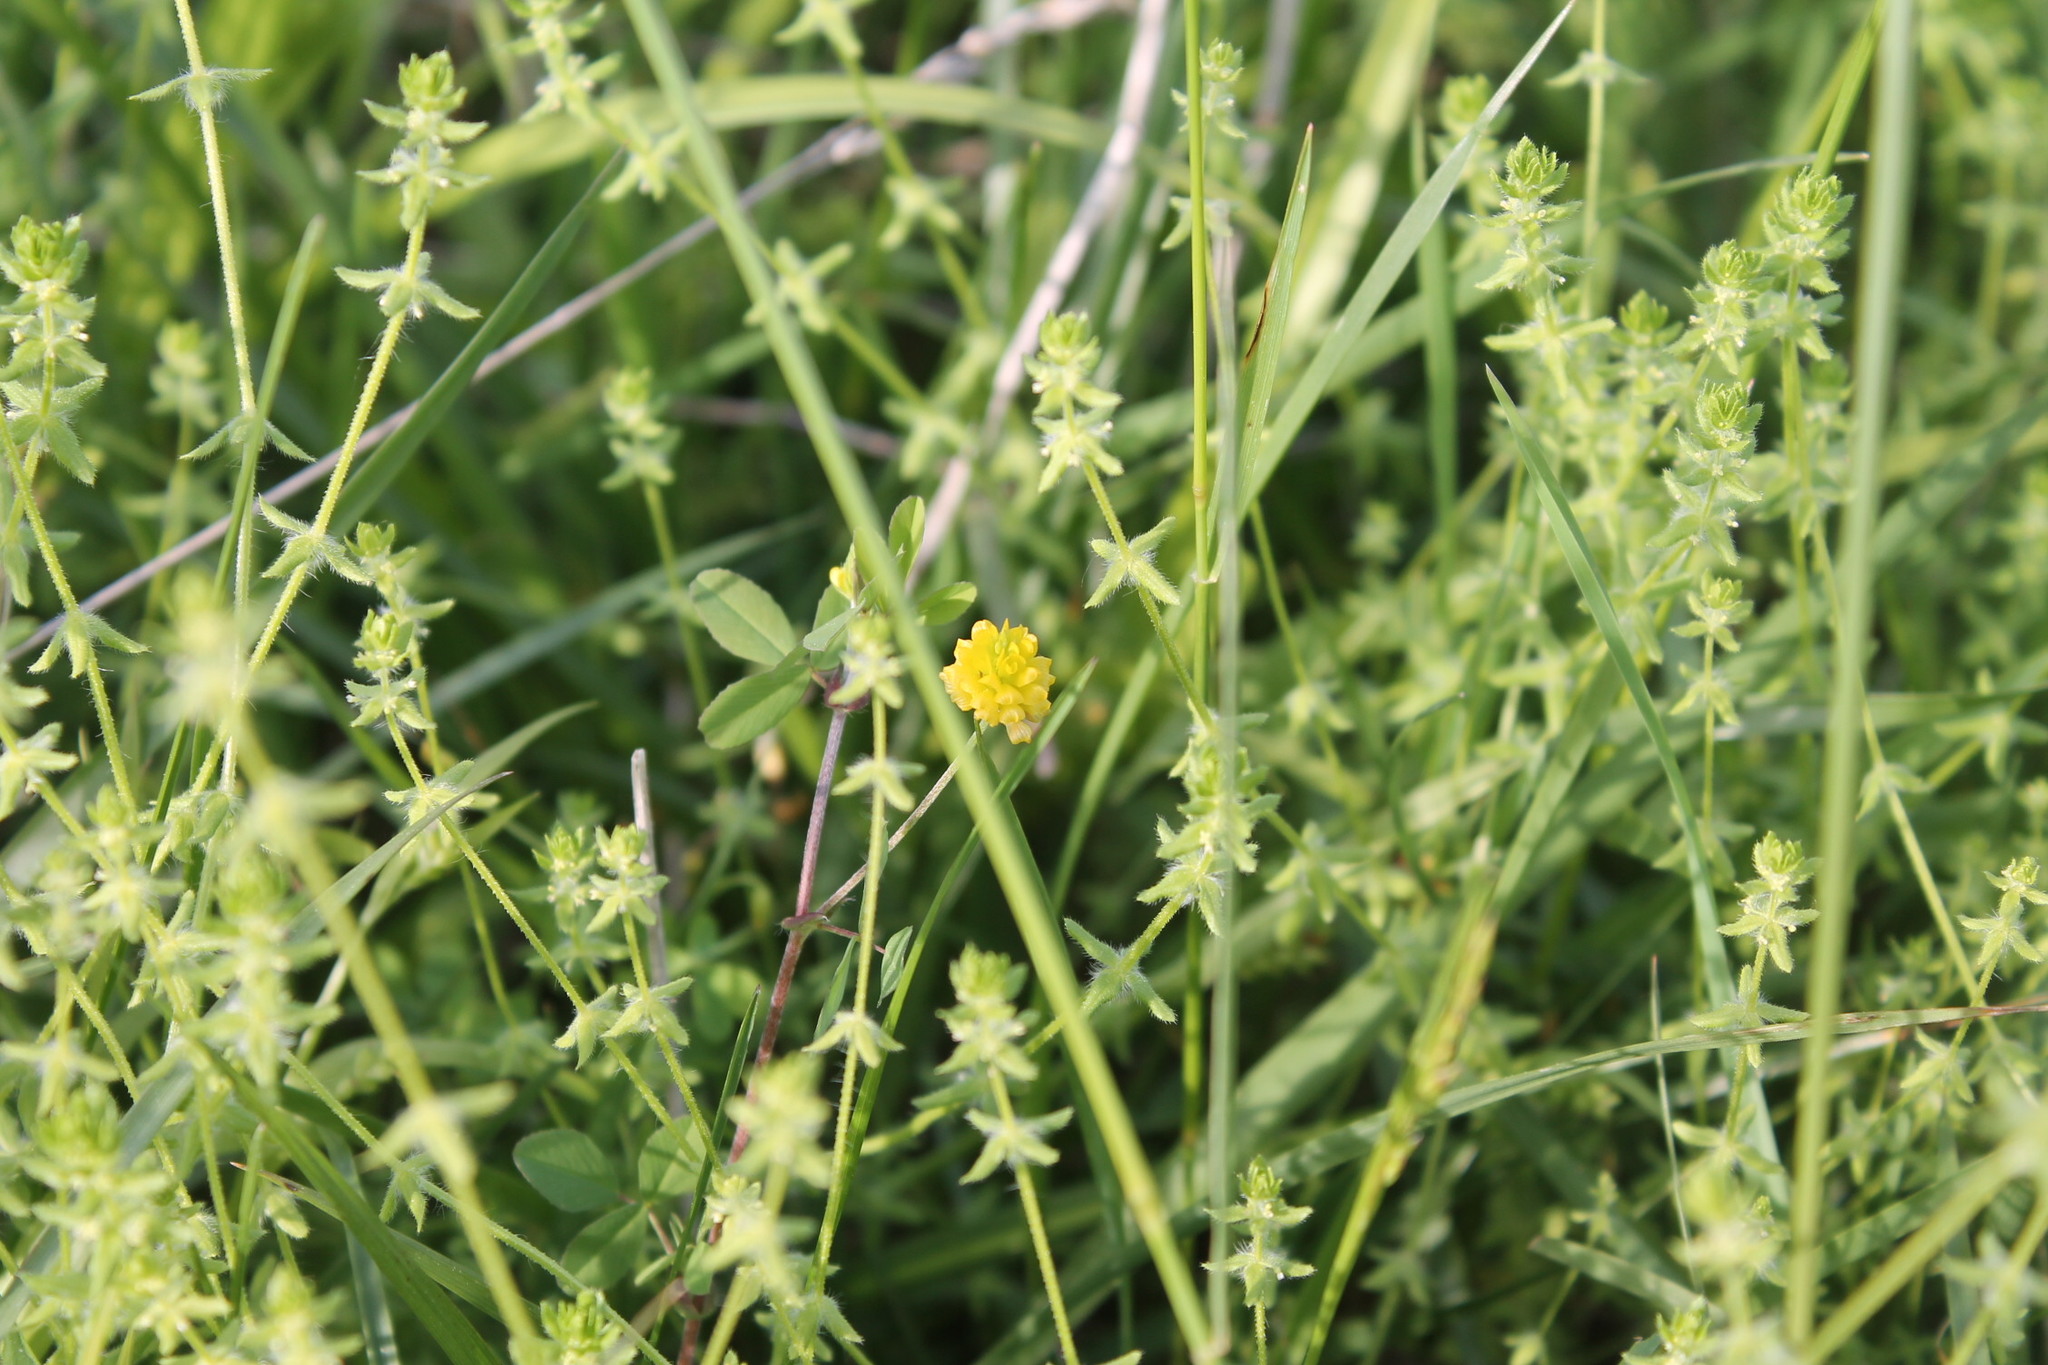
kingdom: Plantae
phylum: Tracheophyta
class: Magnoliopsida
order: Fabales
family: Fabaceae
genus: Trifolium
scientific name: Trifolium campestre
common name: Field clover
